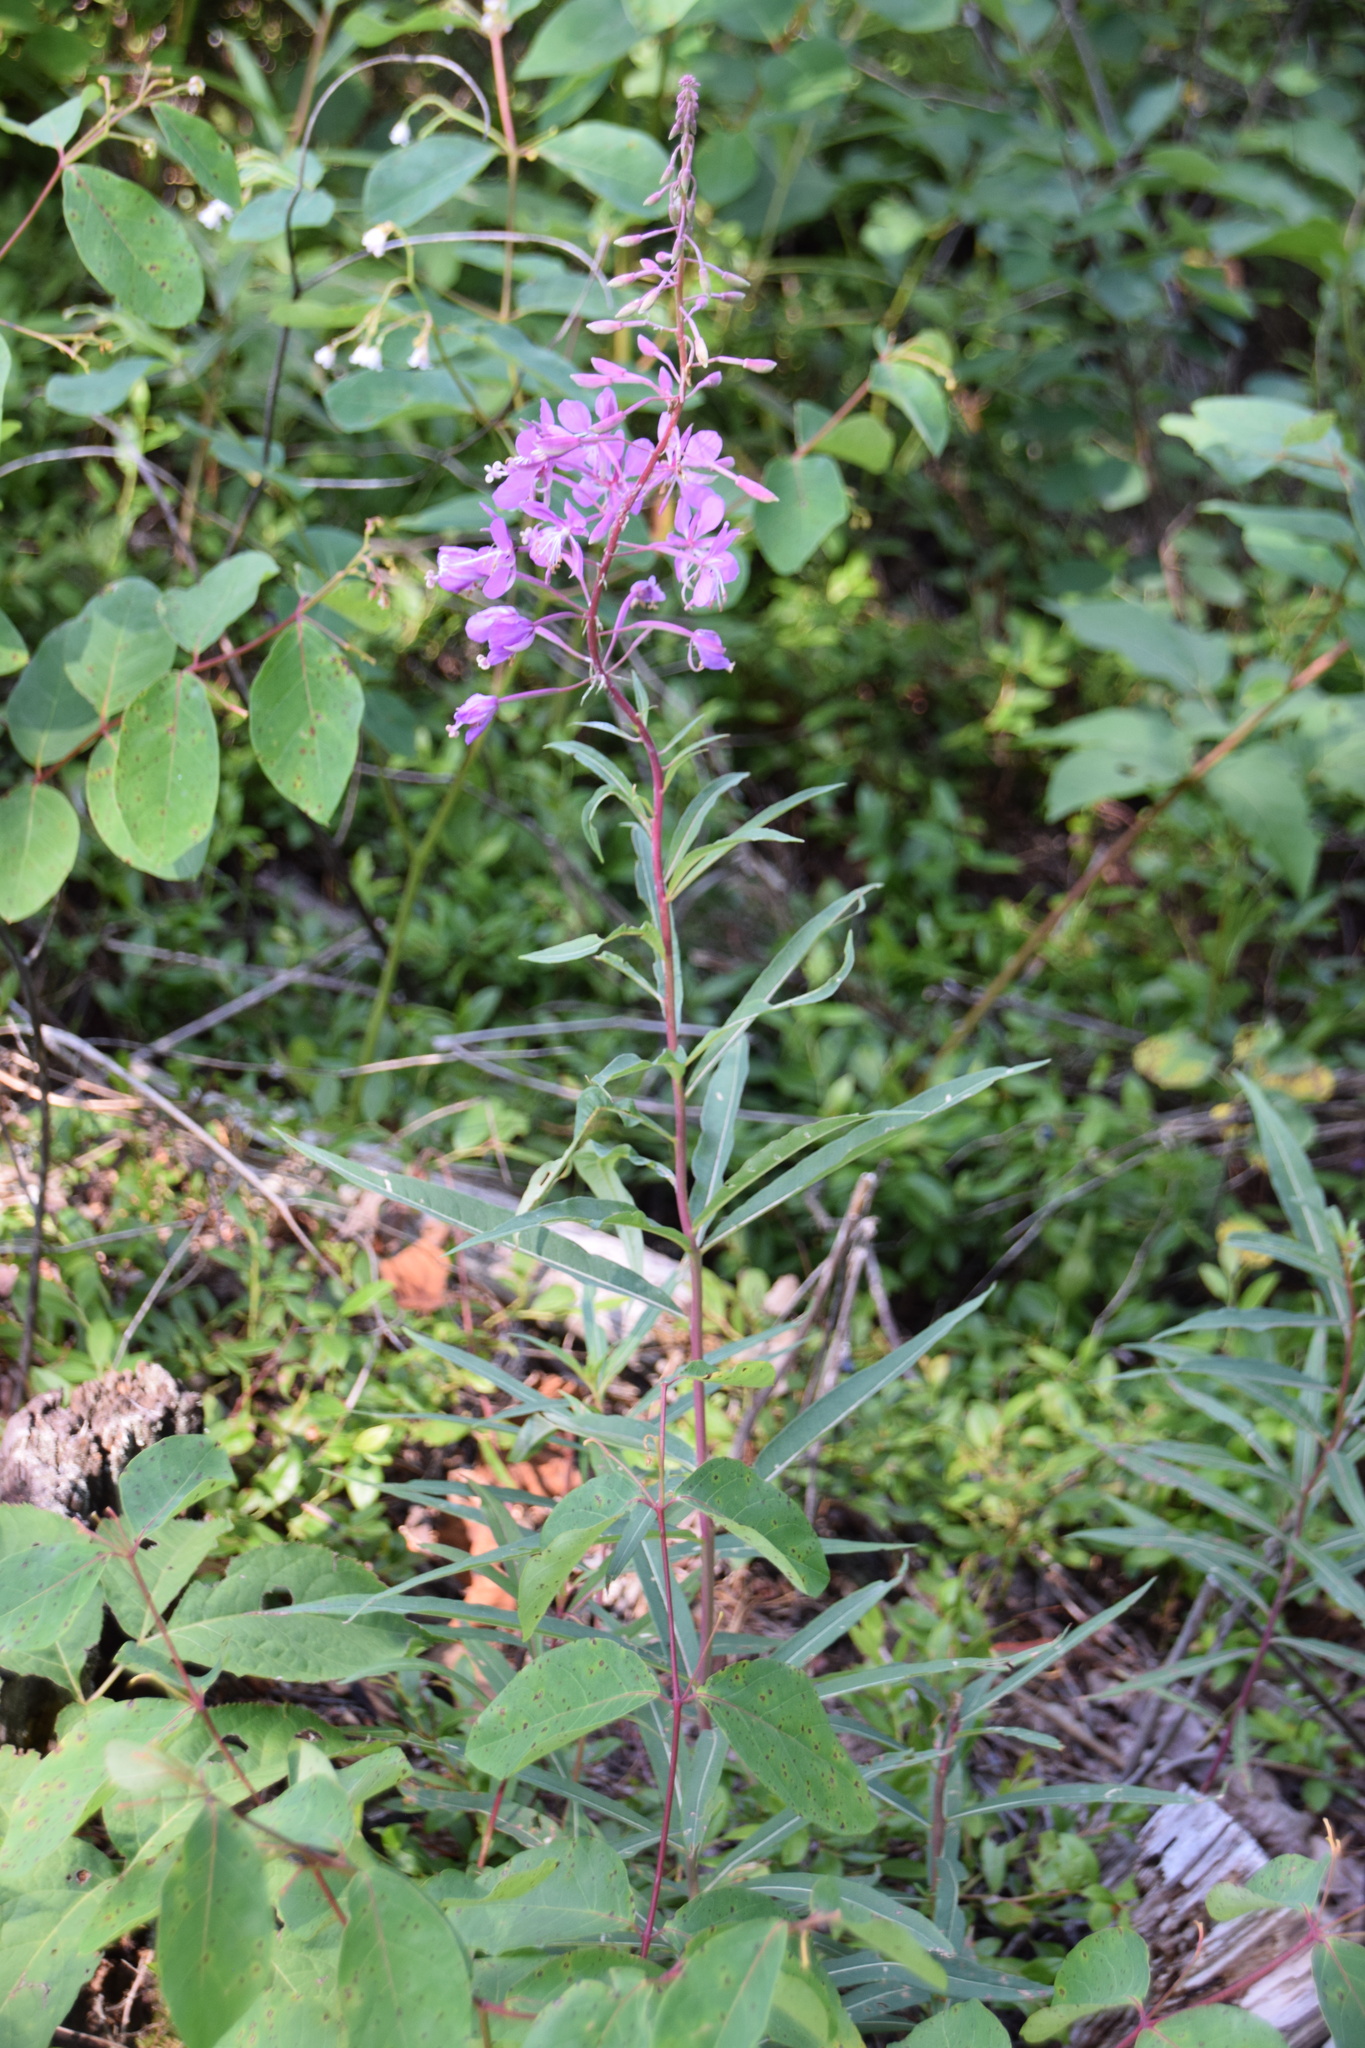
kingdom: Plantae
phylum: Tracheophyta
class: Magnoliopsida
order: Myrtales
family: Onagraceae
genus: Chamaenerion
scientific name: Chamaenerion angustifolium
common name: Fireweed
